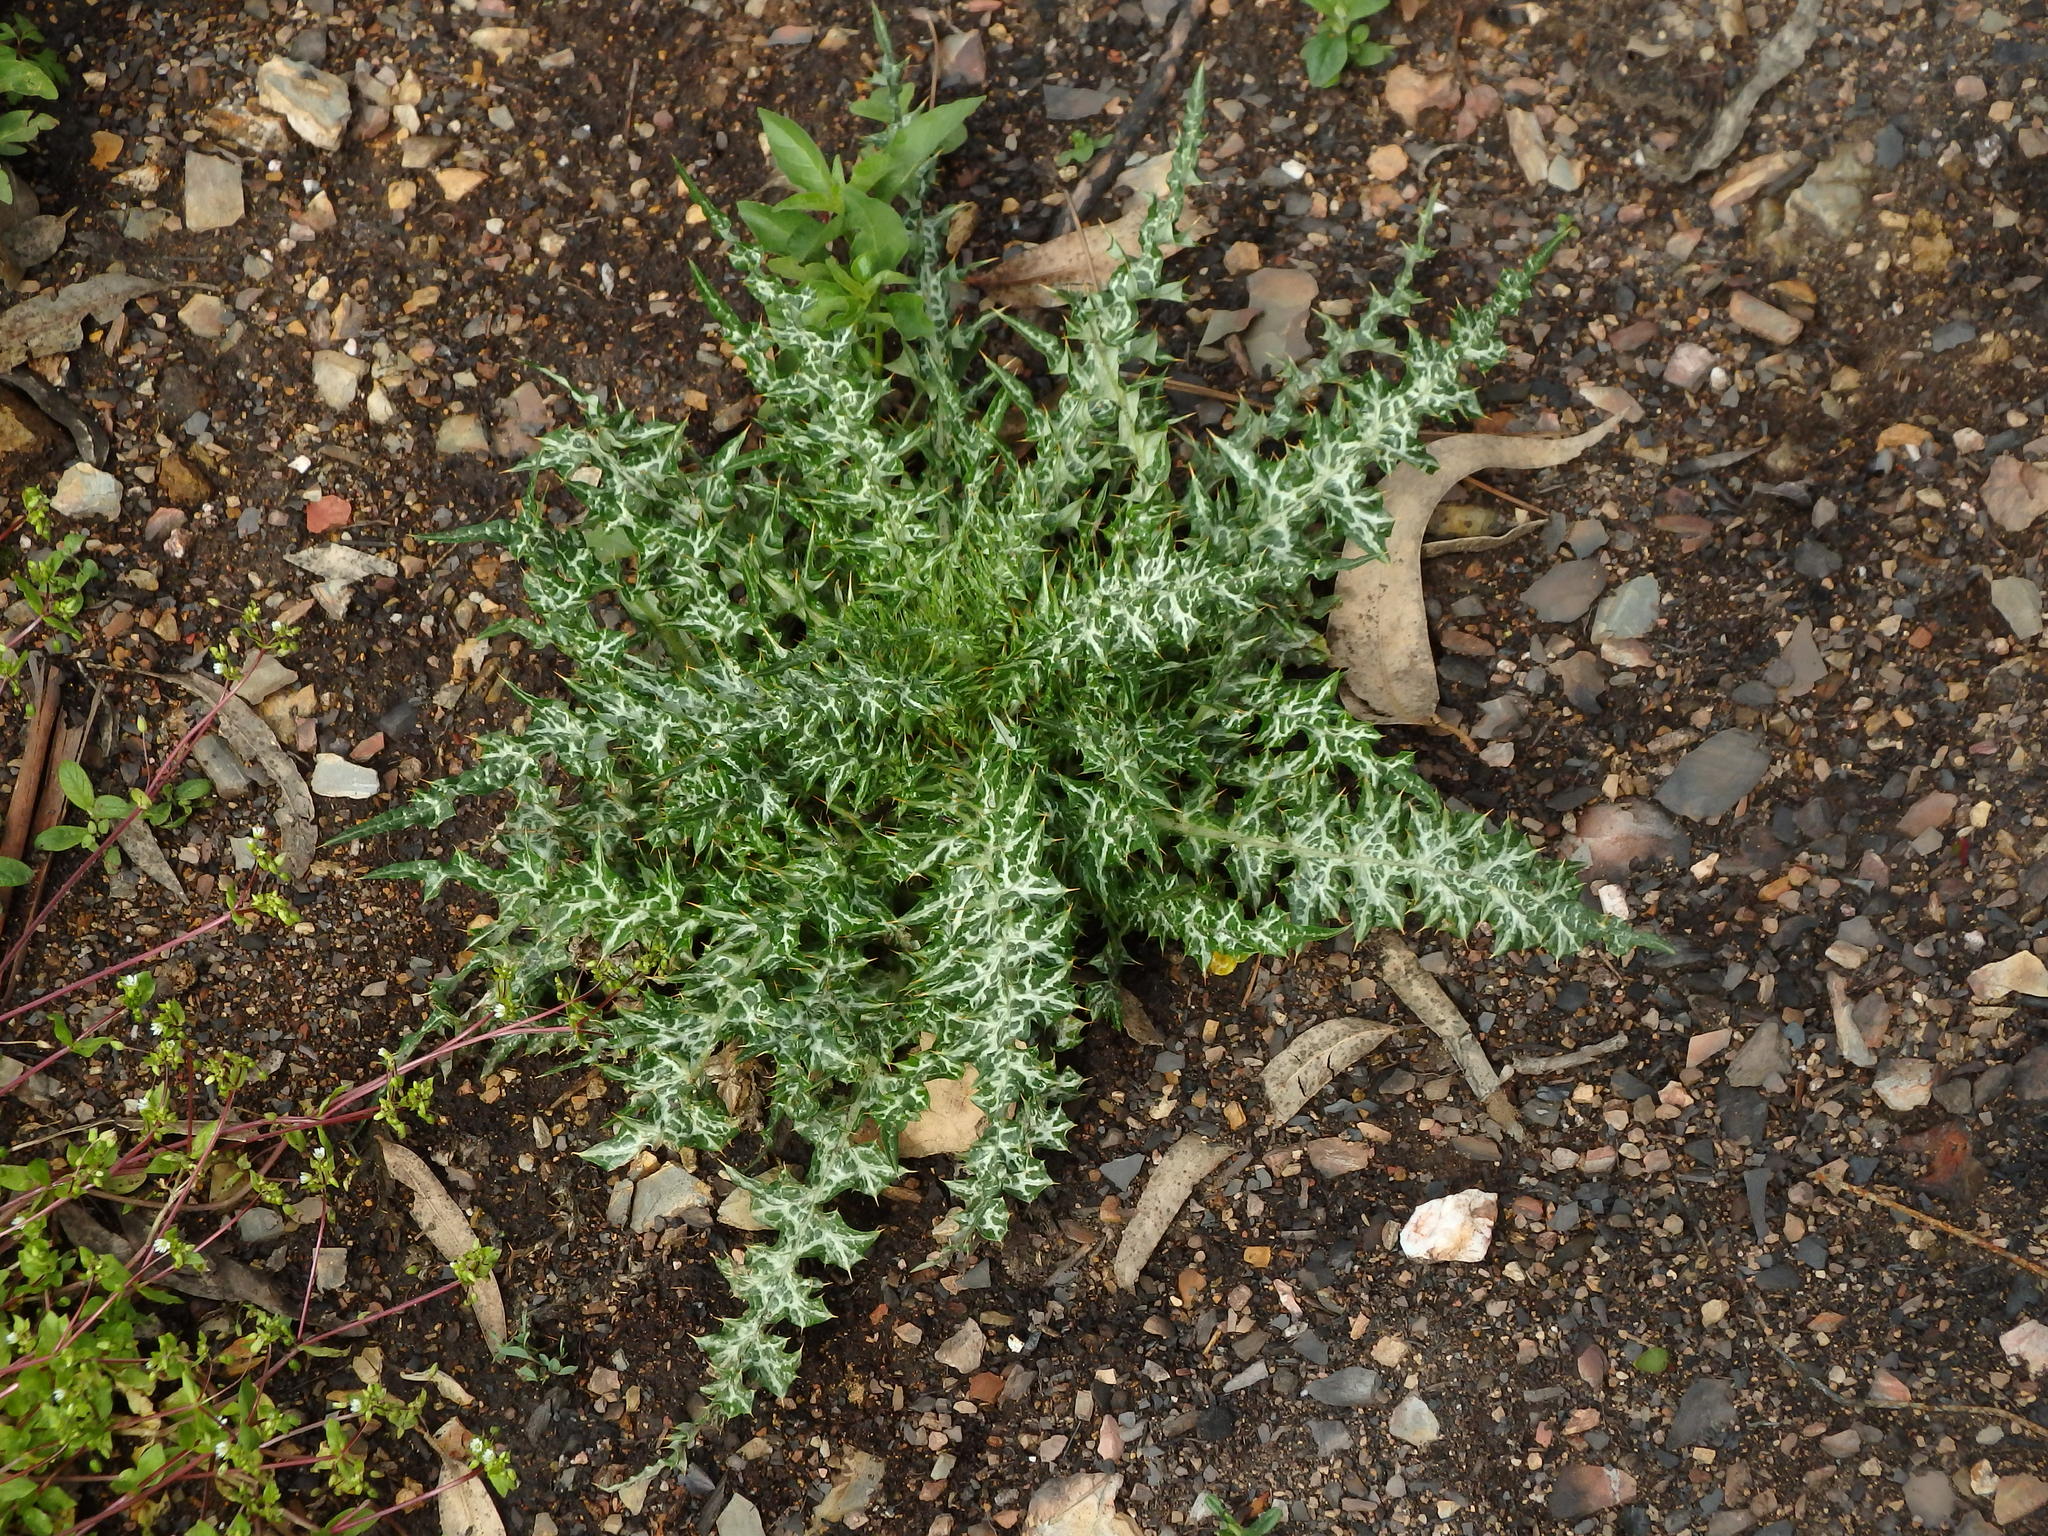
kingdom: Plantae
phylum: Tracheophyta
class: Magnoliopsida
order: Asterales
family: Asteraceae
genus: Galactites
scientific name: Galactites tomentosa
